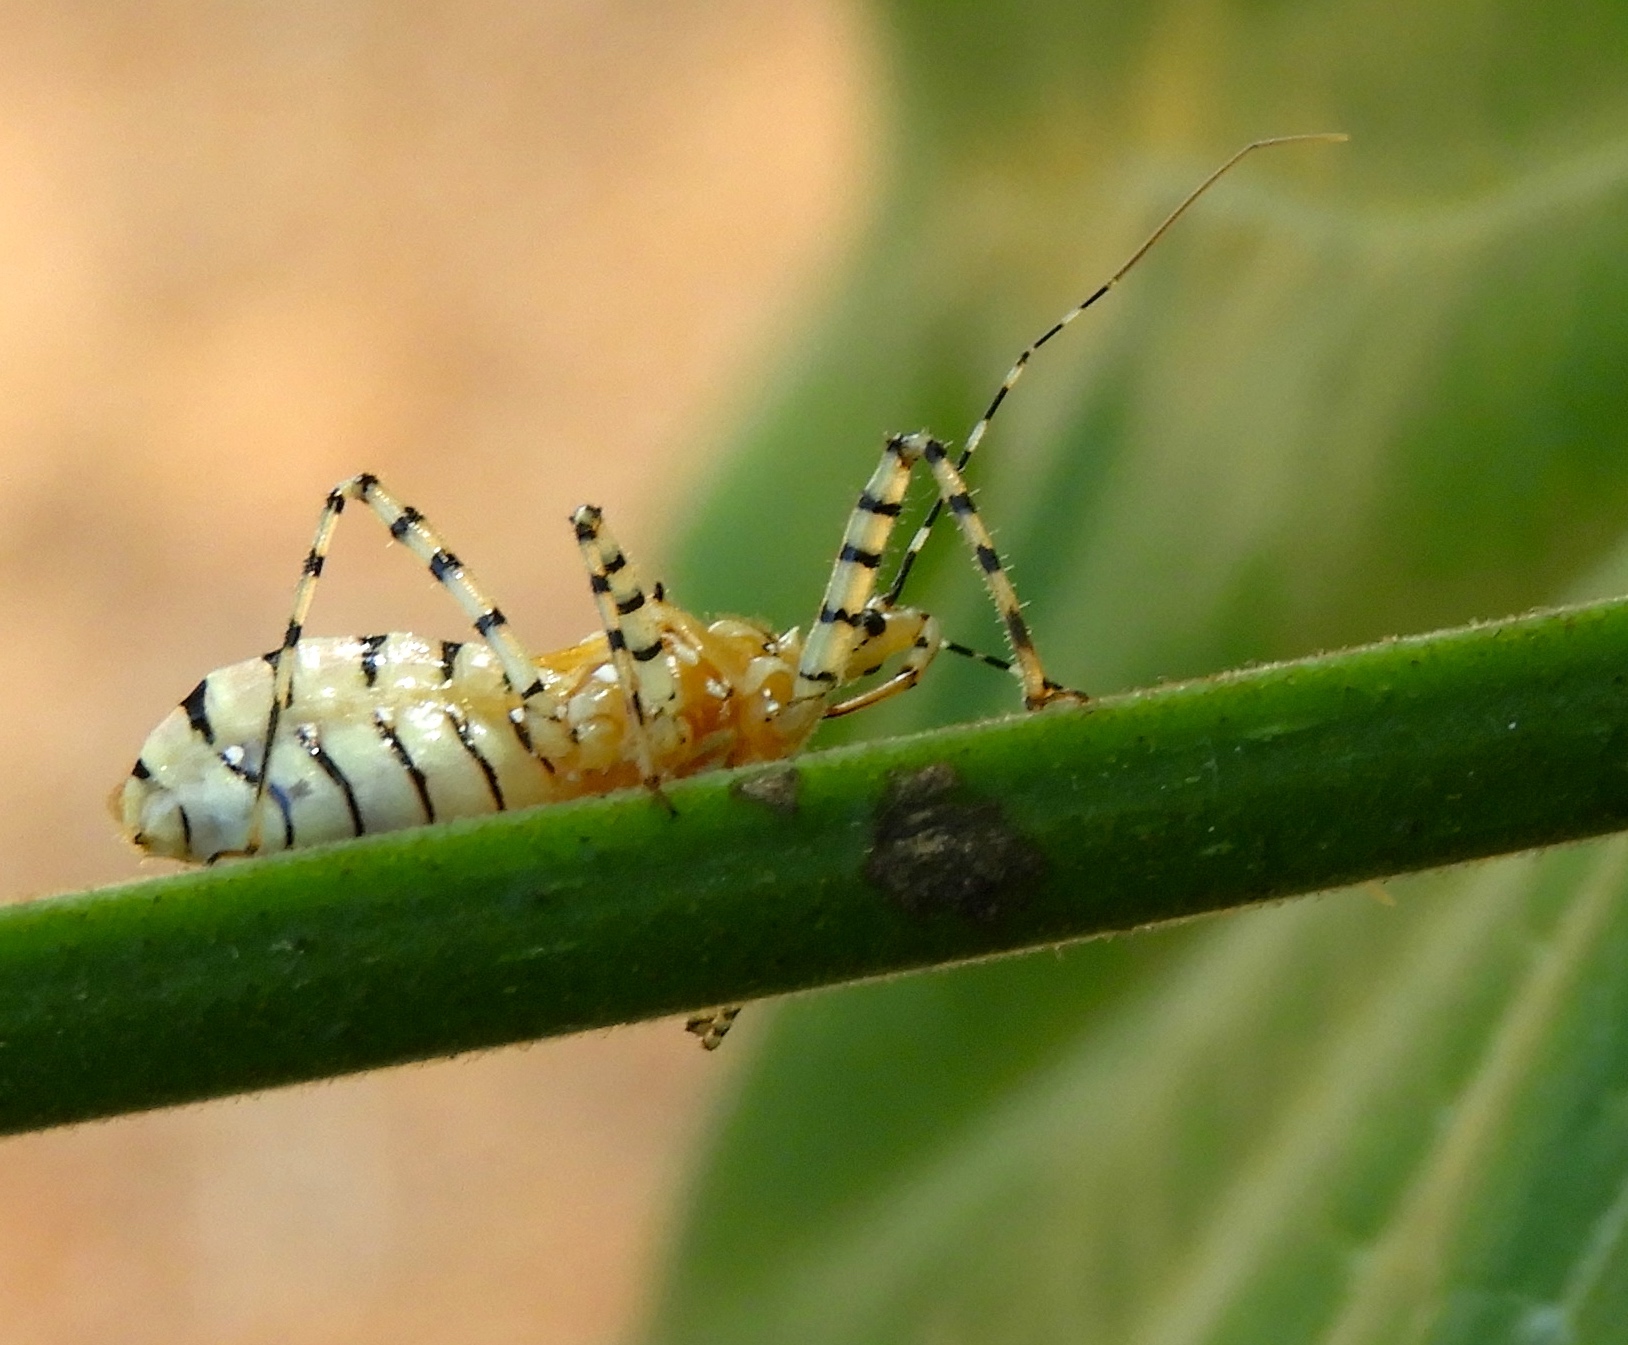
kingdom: Animalia
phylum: Arthropoda
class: Insecta
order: Hemiptera
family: Reduviidae
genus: Pselliopus
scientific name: Pselliopus latispina
